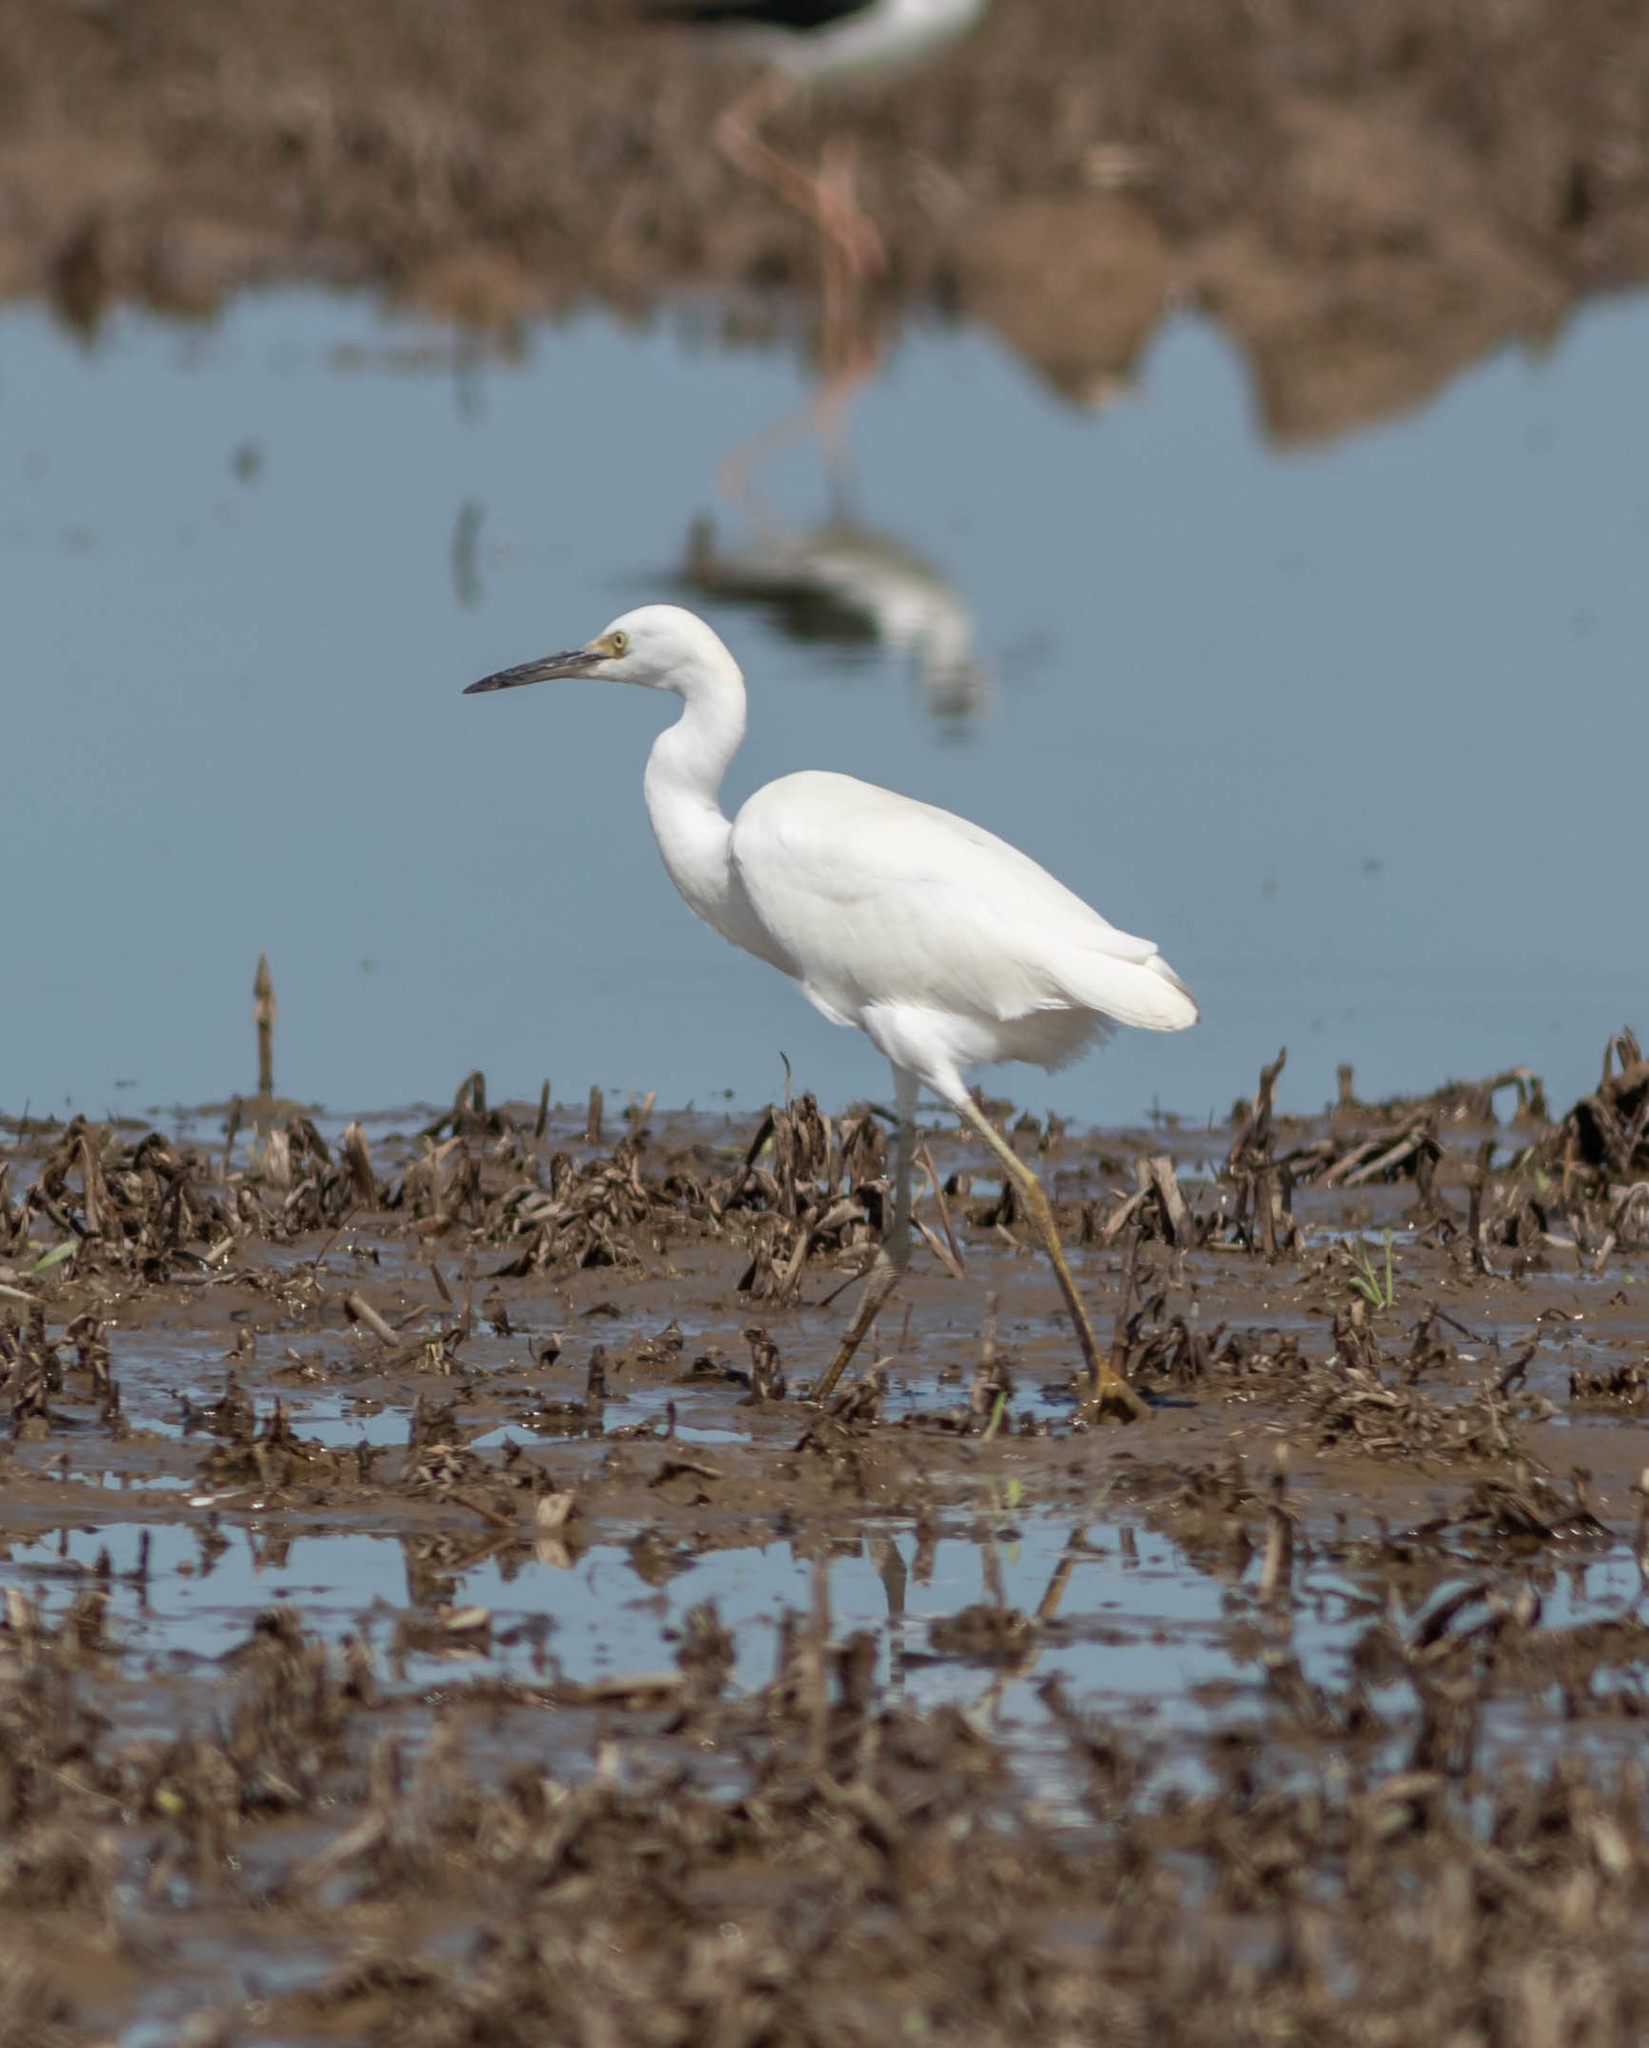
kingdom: Animalia
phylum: Chordata
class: Aves
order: Pelecaniformes
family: Ardeidae
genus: Egretta
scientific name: Egretta thula
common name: Snowy egret
